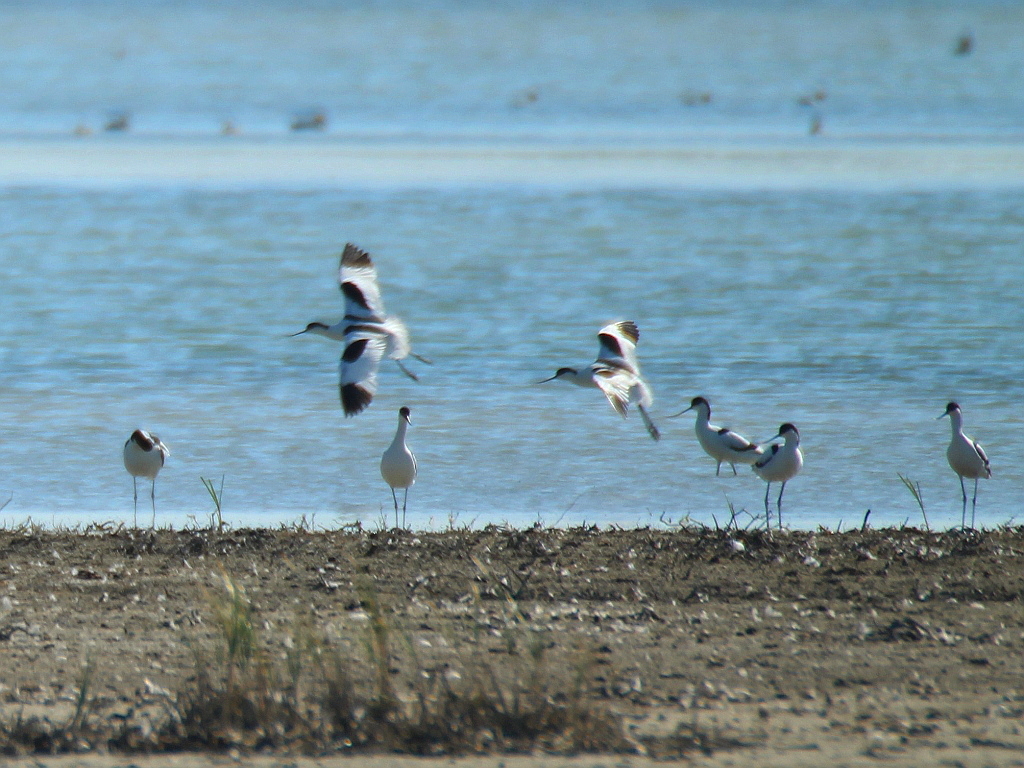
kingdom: Animalia
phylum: Chordata
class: Aves
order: Charadriiformes
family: Recurvirostridae
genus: Recurvirostra
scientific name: Recurvirostra avosetta
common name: Pied avocet
